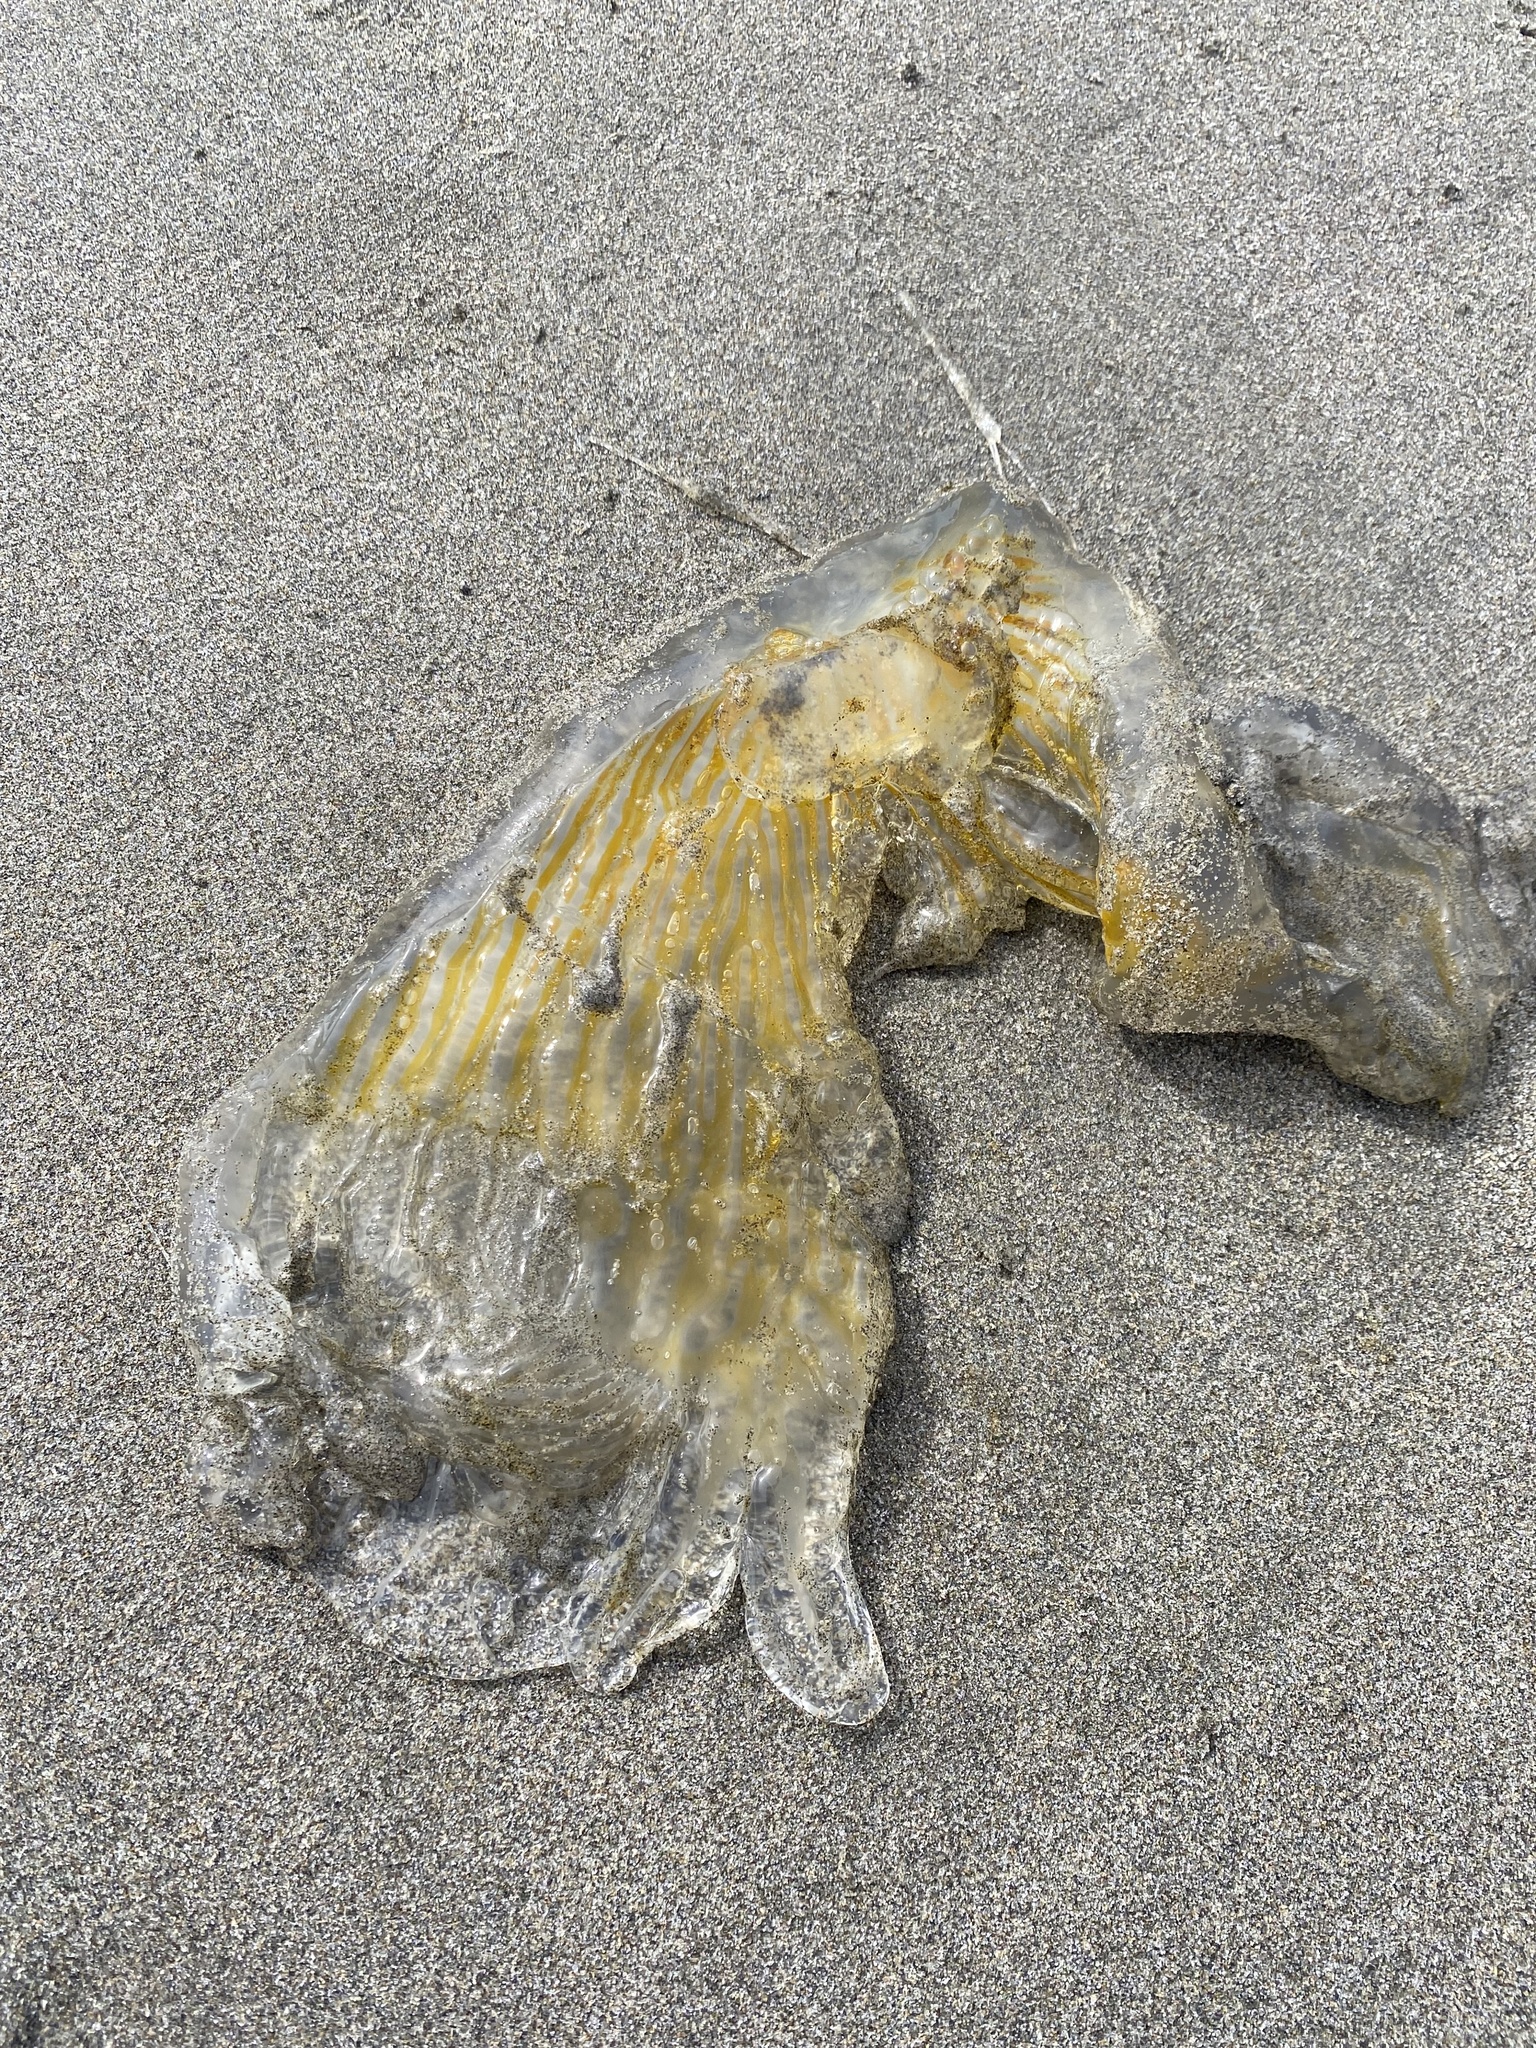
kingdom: Animalia
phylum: Cnidaria
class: Scyphozoa
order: Semaeostomeae
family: Phacellophoridae
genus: Phacellophora
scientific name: Phacellophora camtschatica
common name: Fried-egg jellyfish
